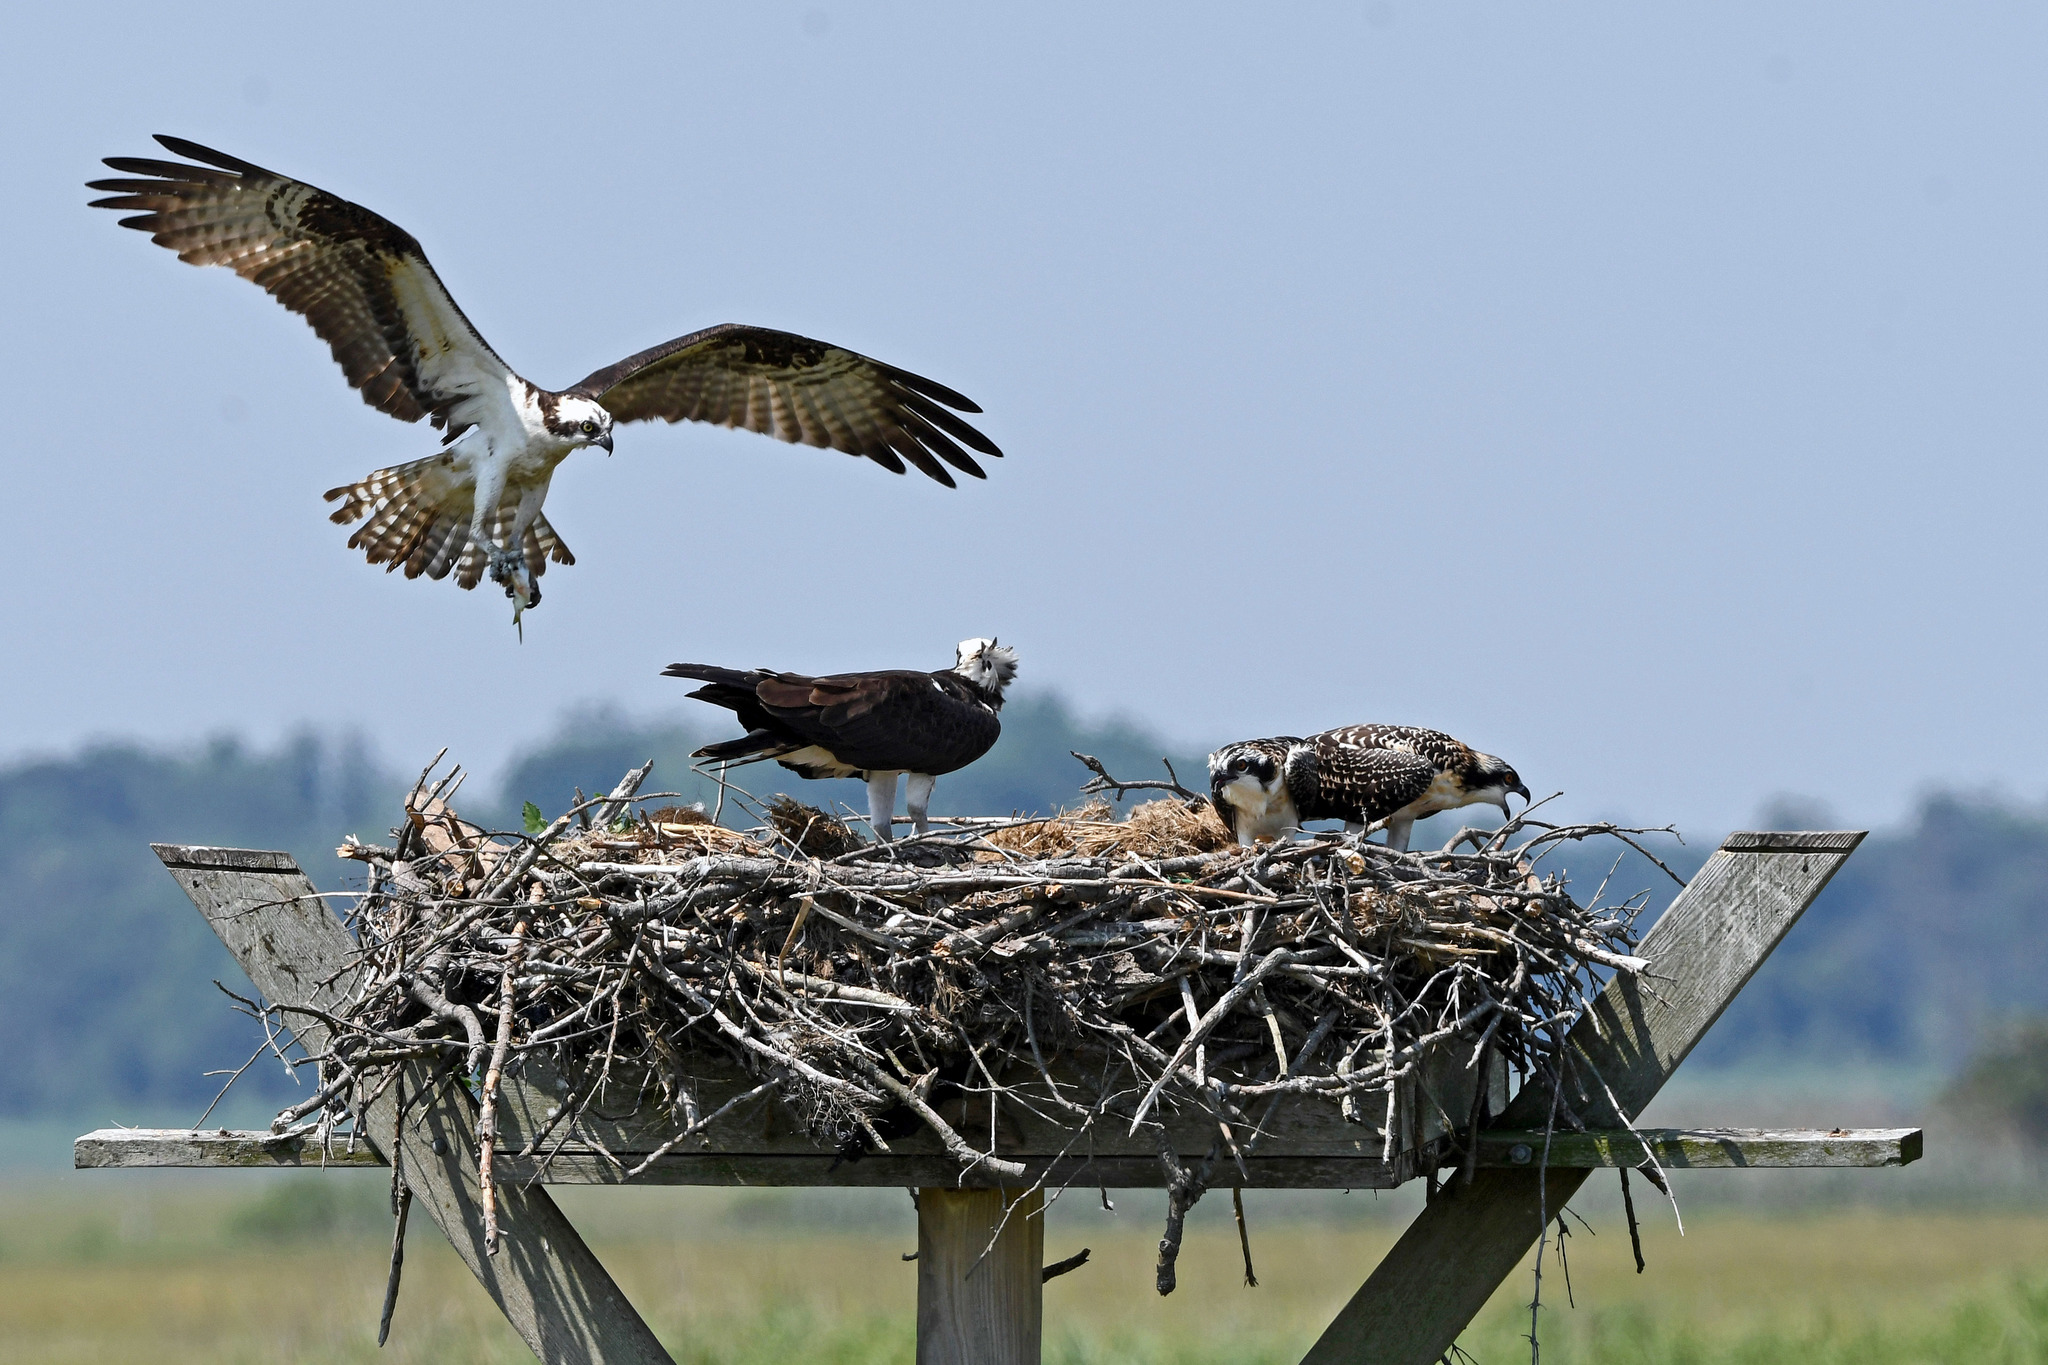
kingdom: Animalia
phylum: Chordata
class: Aves
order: Accipitriformes
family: Pandionidae
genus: Pandion
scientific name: Pandion haliaetus
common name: Osprey
